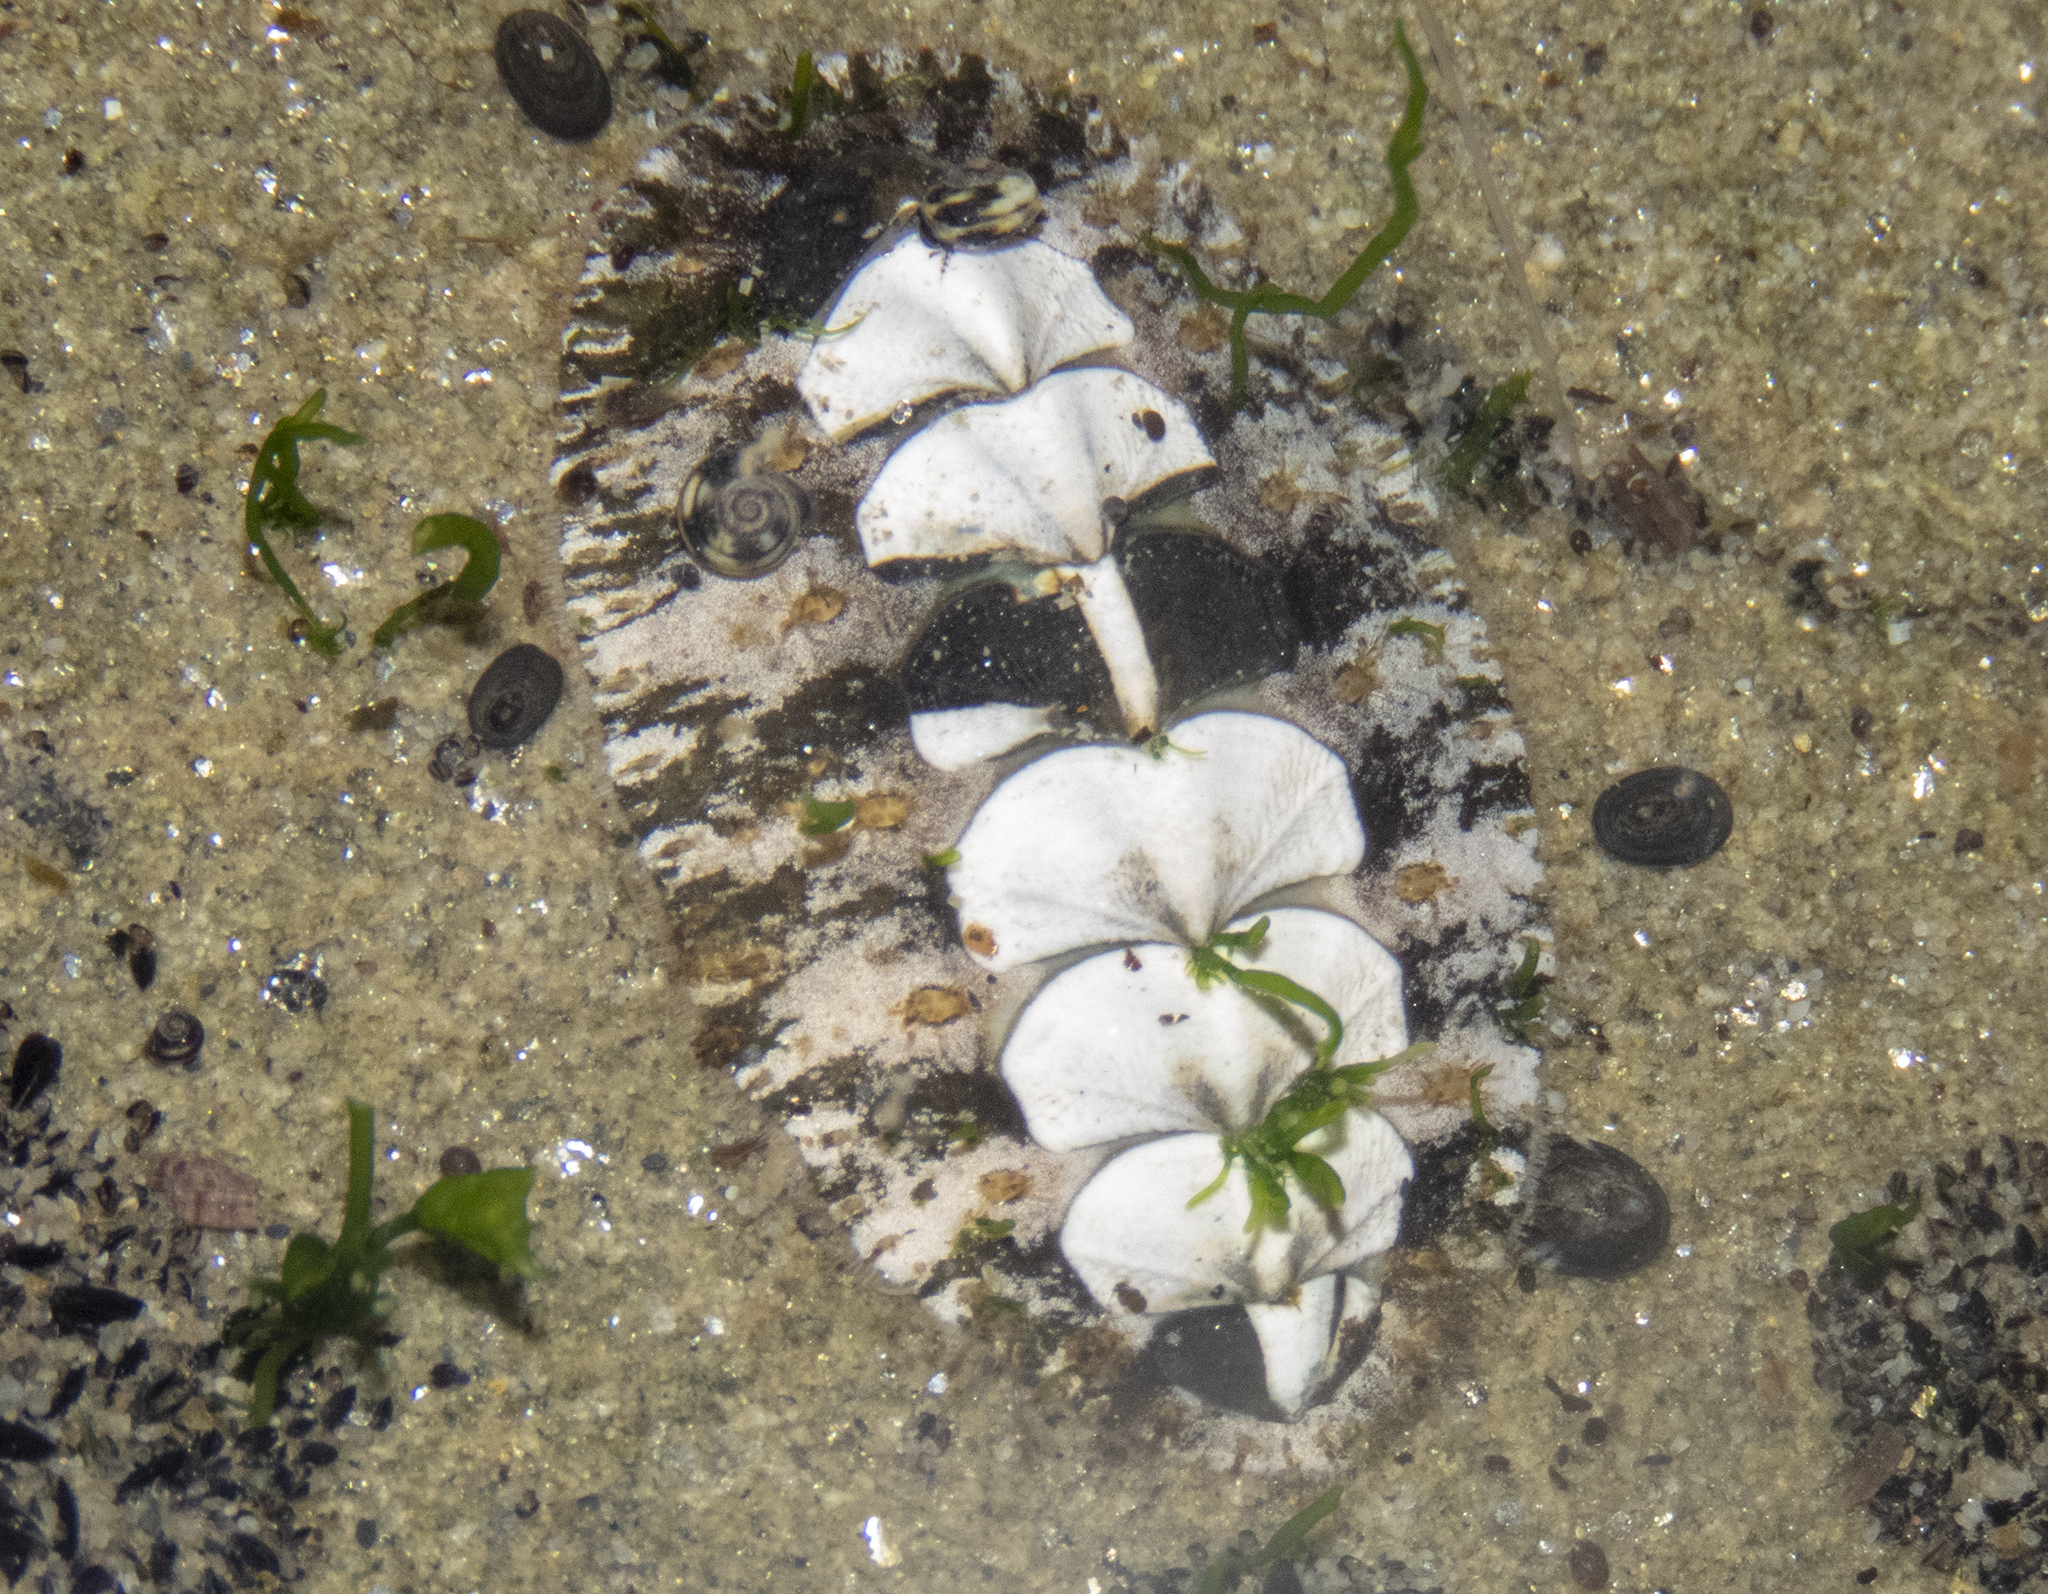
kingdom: Animalia
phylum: Mollusca
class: Polyplacophora
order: Chitonida
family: Mopaliidae
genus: Plaxiphora
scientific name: Plaxiphora caelata
